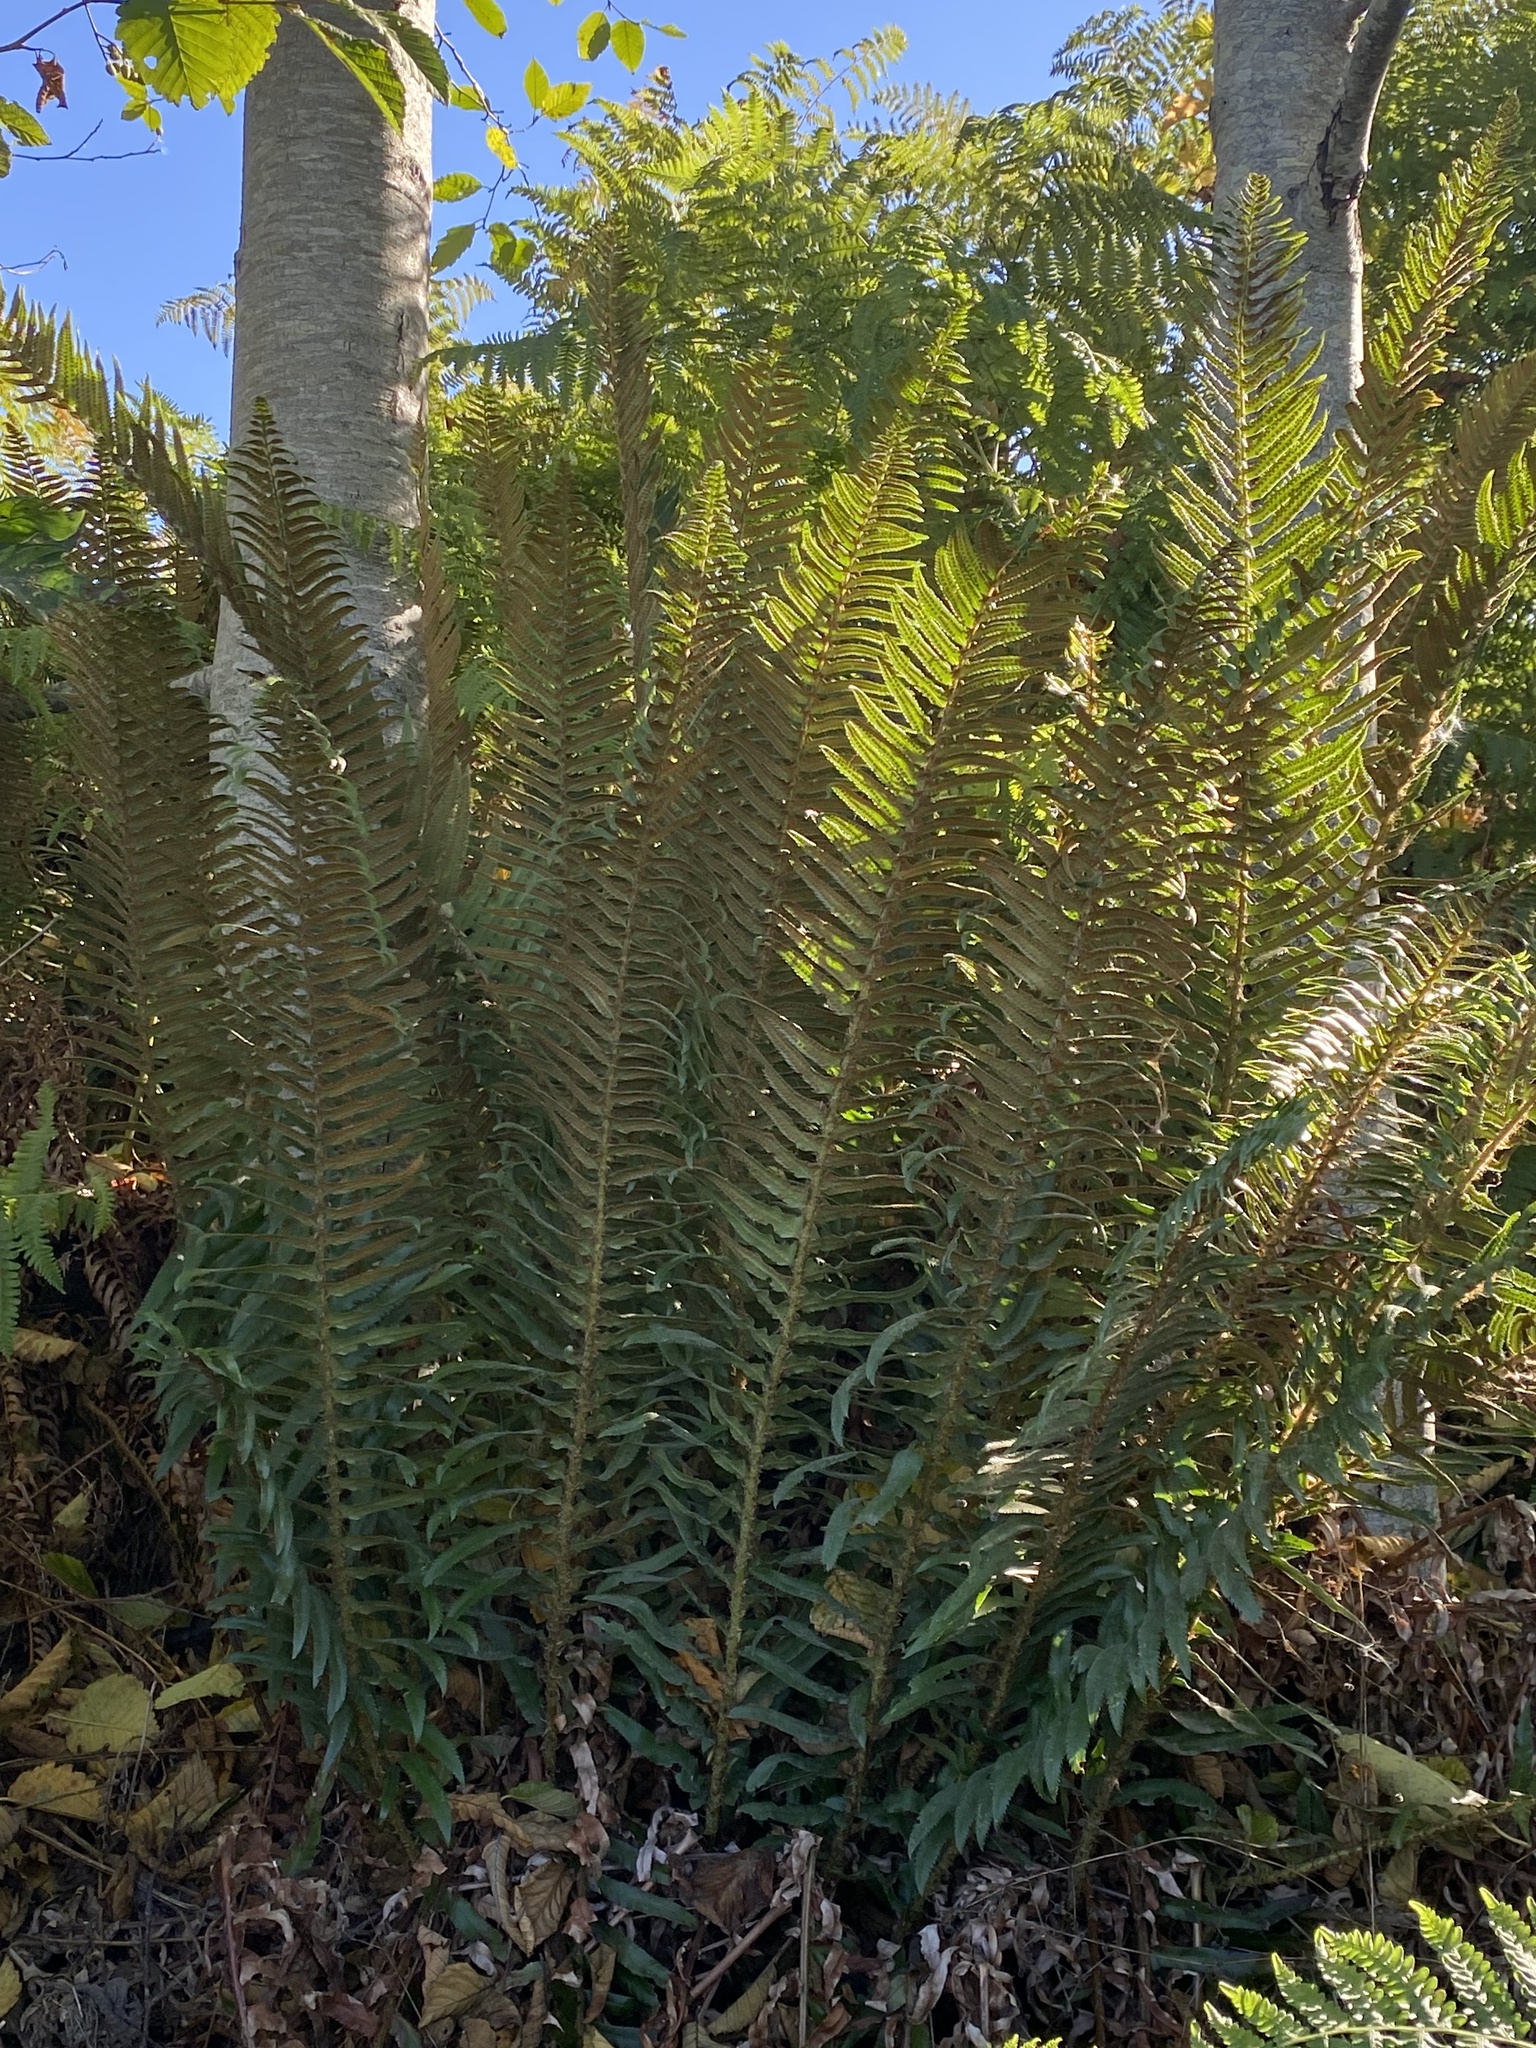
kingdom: Plantae
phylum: Tracheophyta
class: Polypodiopsida
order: Polypodiales
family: Dryopteridaceae
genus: Polystichum
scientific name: Polystichum munitum
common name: Western sword-fern
